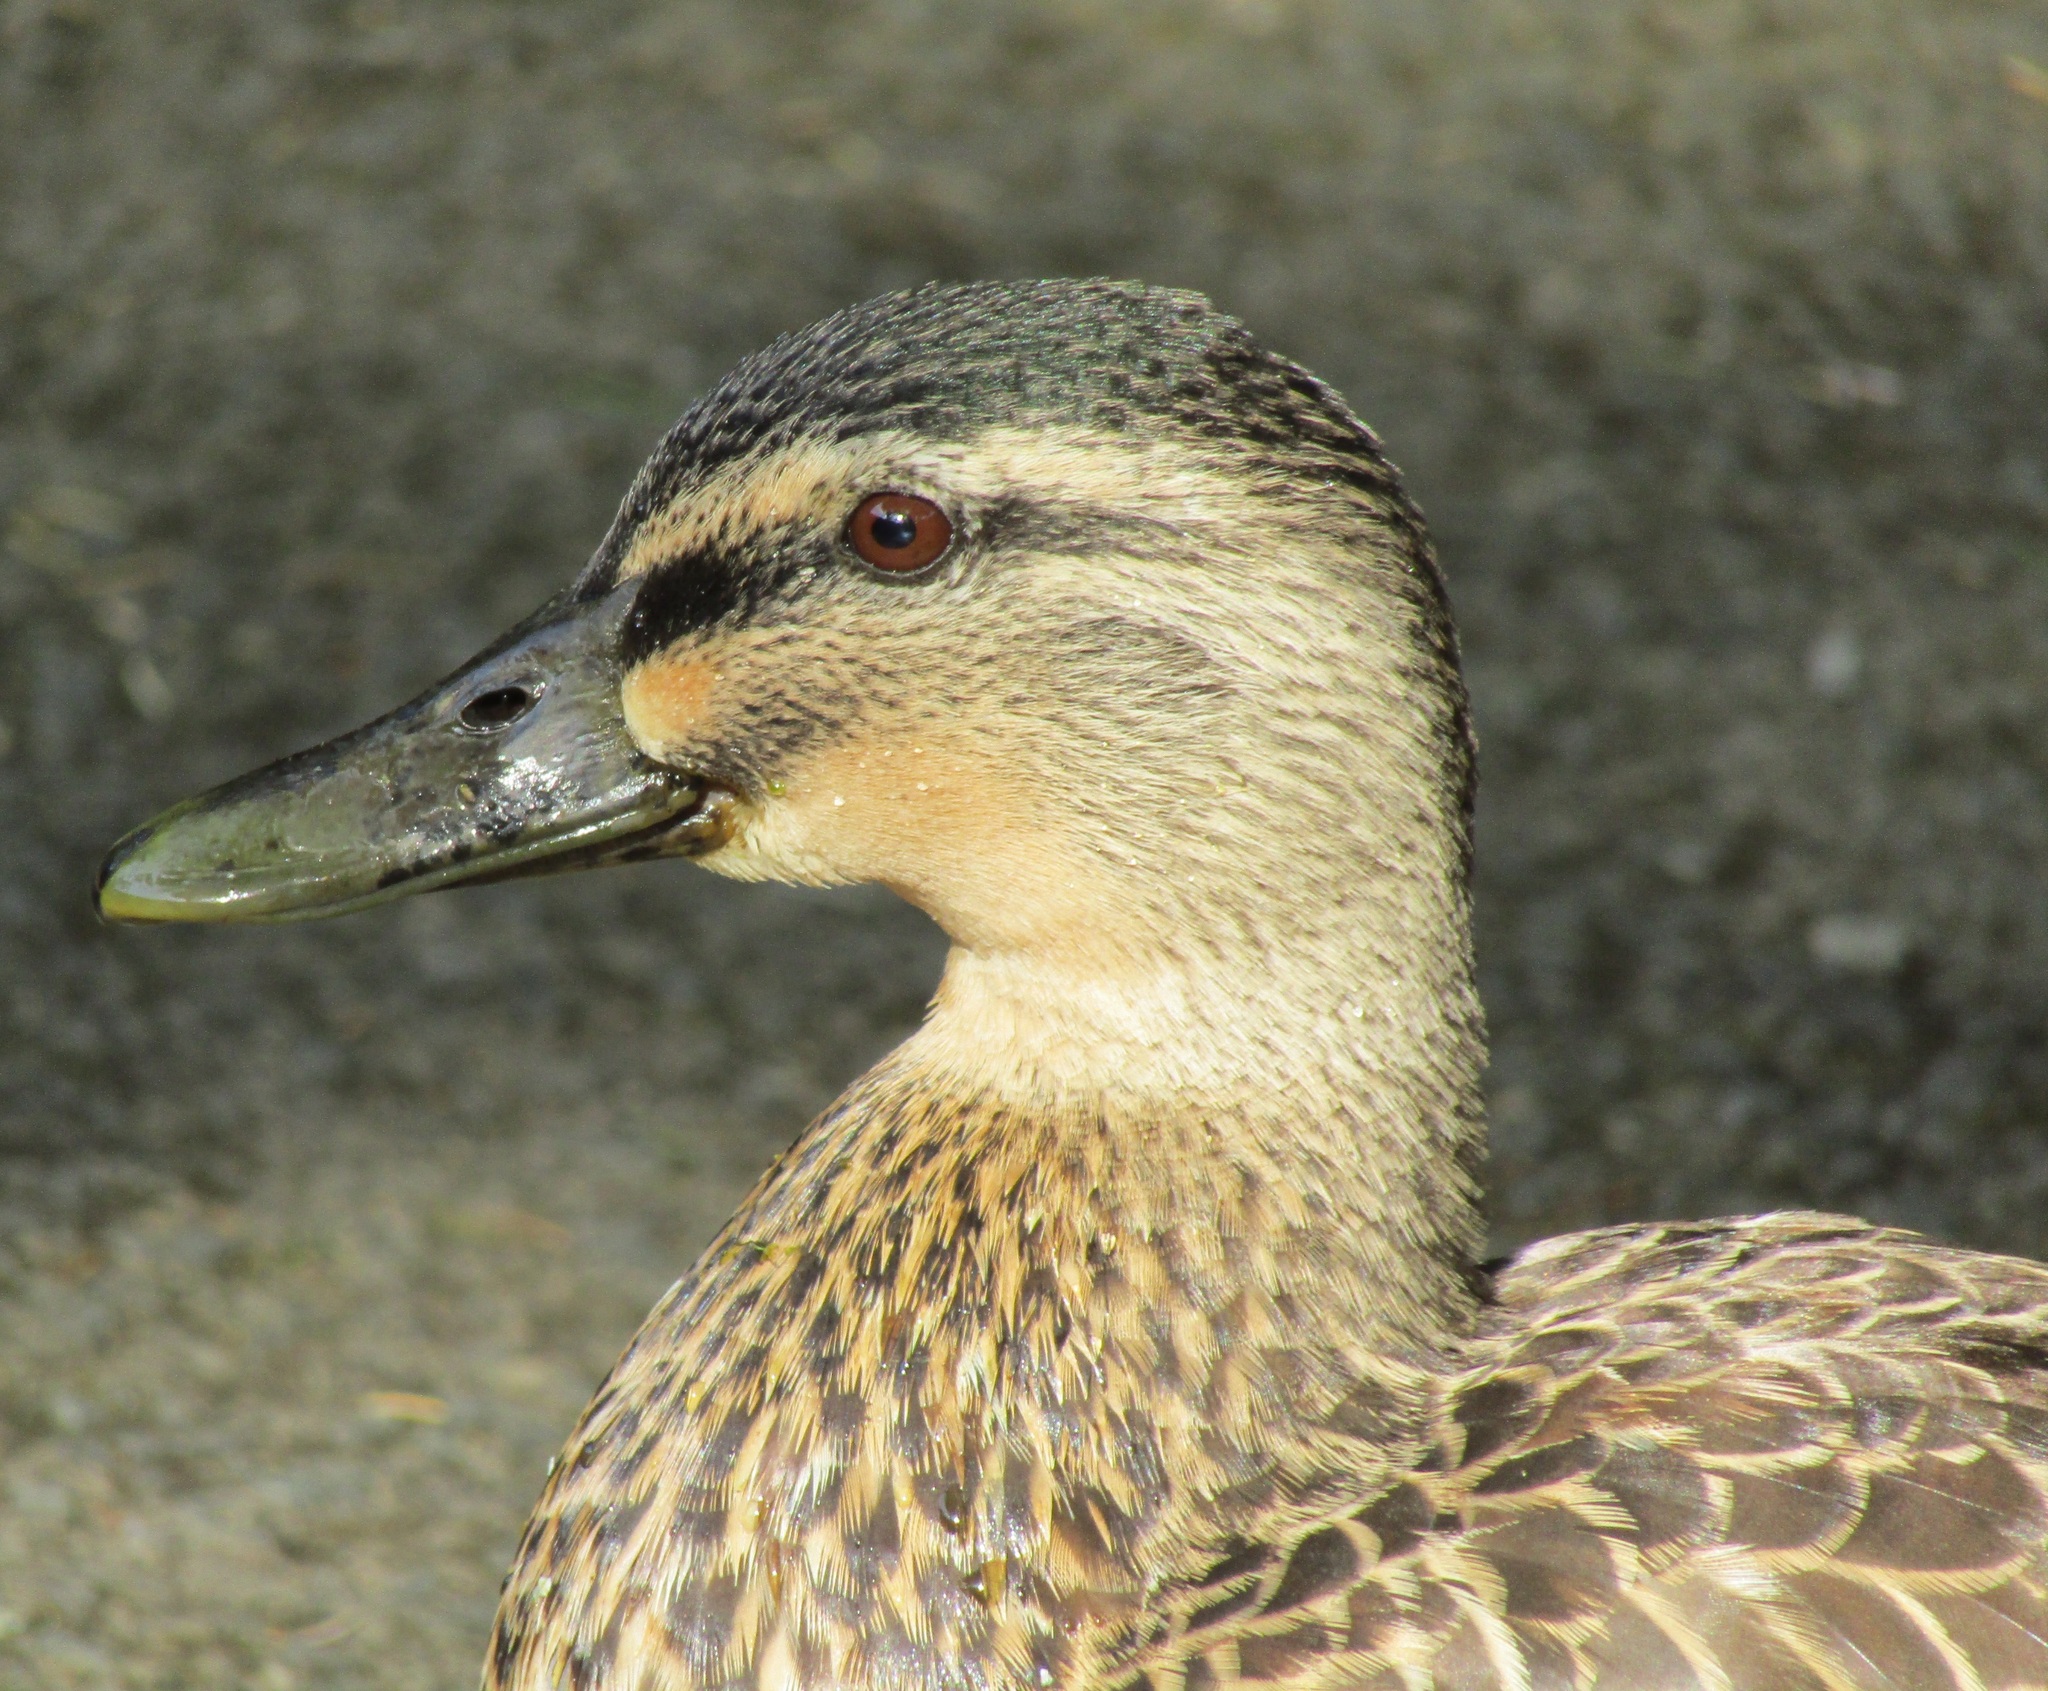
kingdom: Animalia
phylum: Chordata
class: Aves
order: Anseriformes
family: Anatidae
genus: Anas
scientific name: Anas
